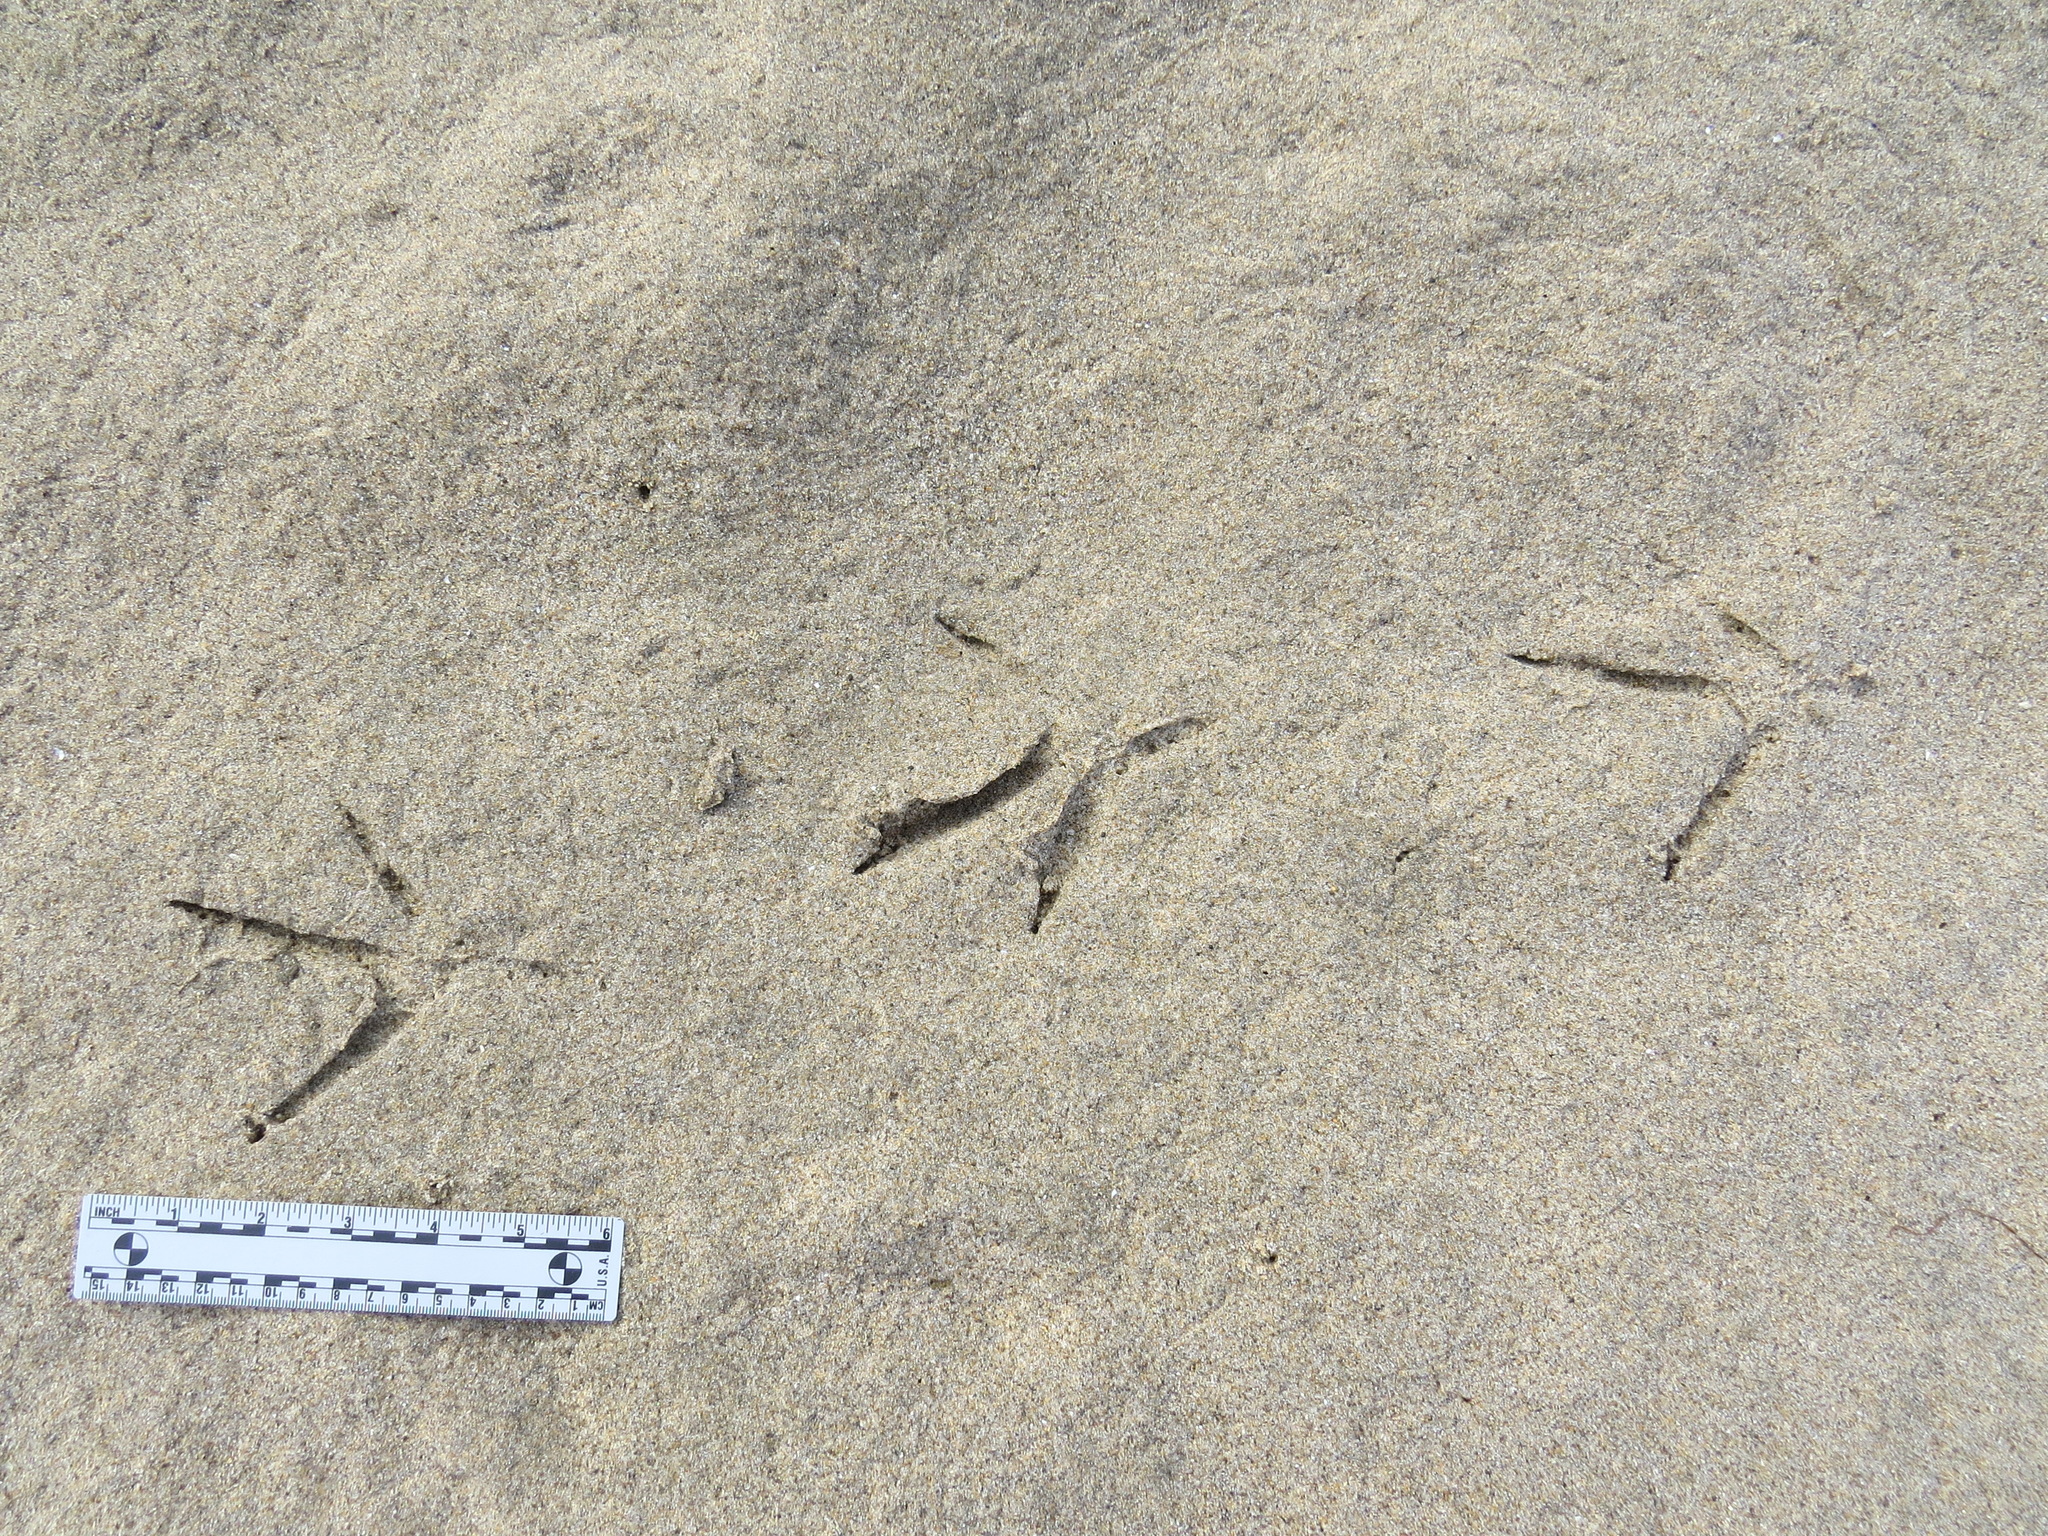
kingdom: Animalia
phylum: Chordata
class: Aves
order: Pelecaniformes
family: Ardeidae
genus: Egretta
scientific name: Egretta thula
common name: Snowy egret
